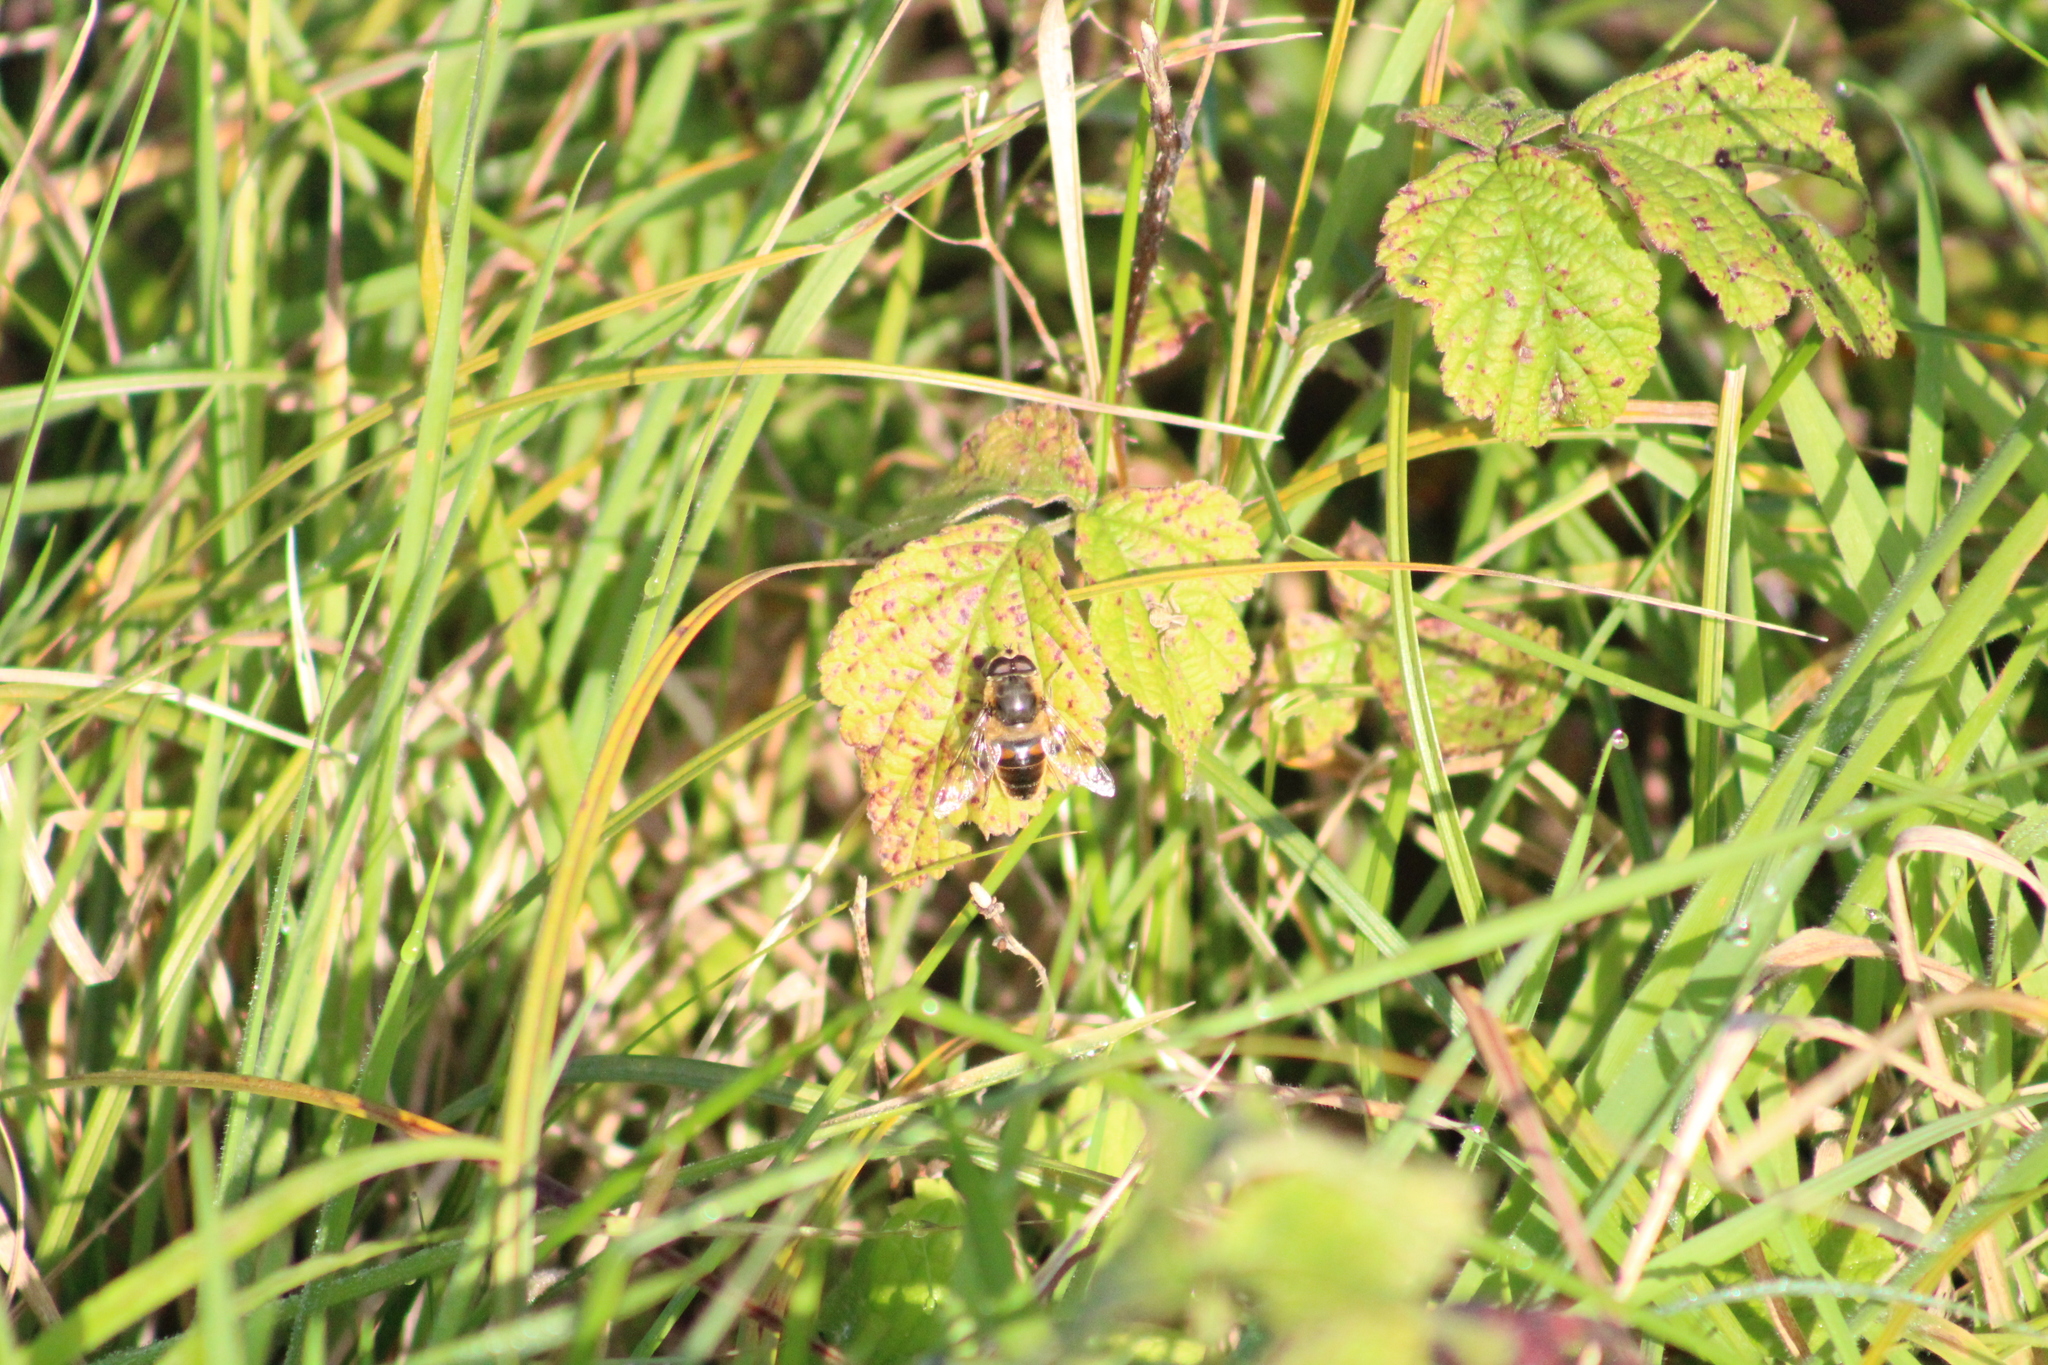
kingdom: Animalia
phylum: Arthropoda
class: Insecta
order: Diptera
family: Syrphidae
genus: Eristalis
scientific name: Eristalis tenax
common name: Drone fly
